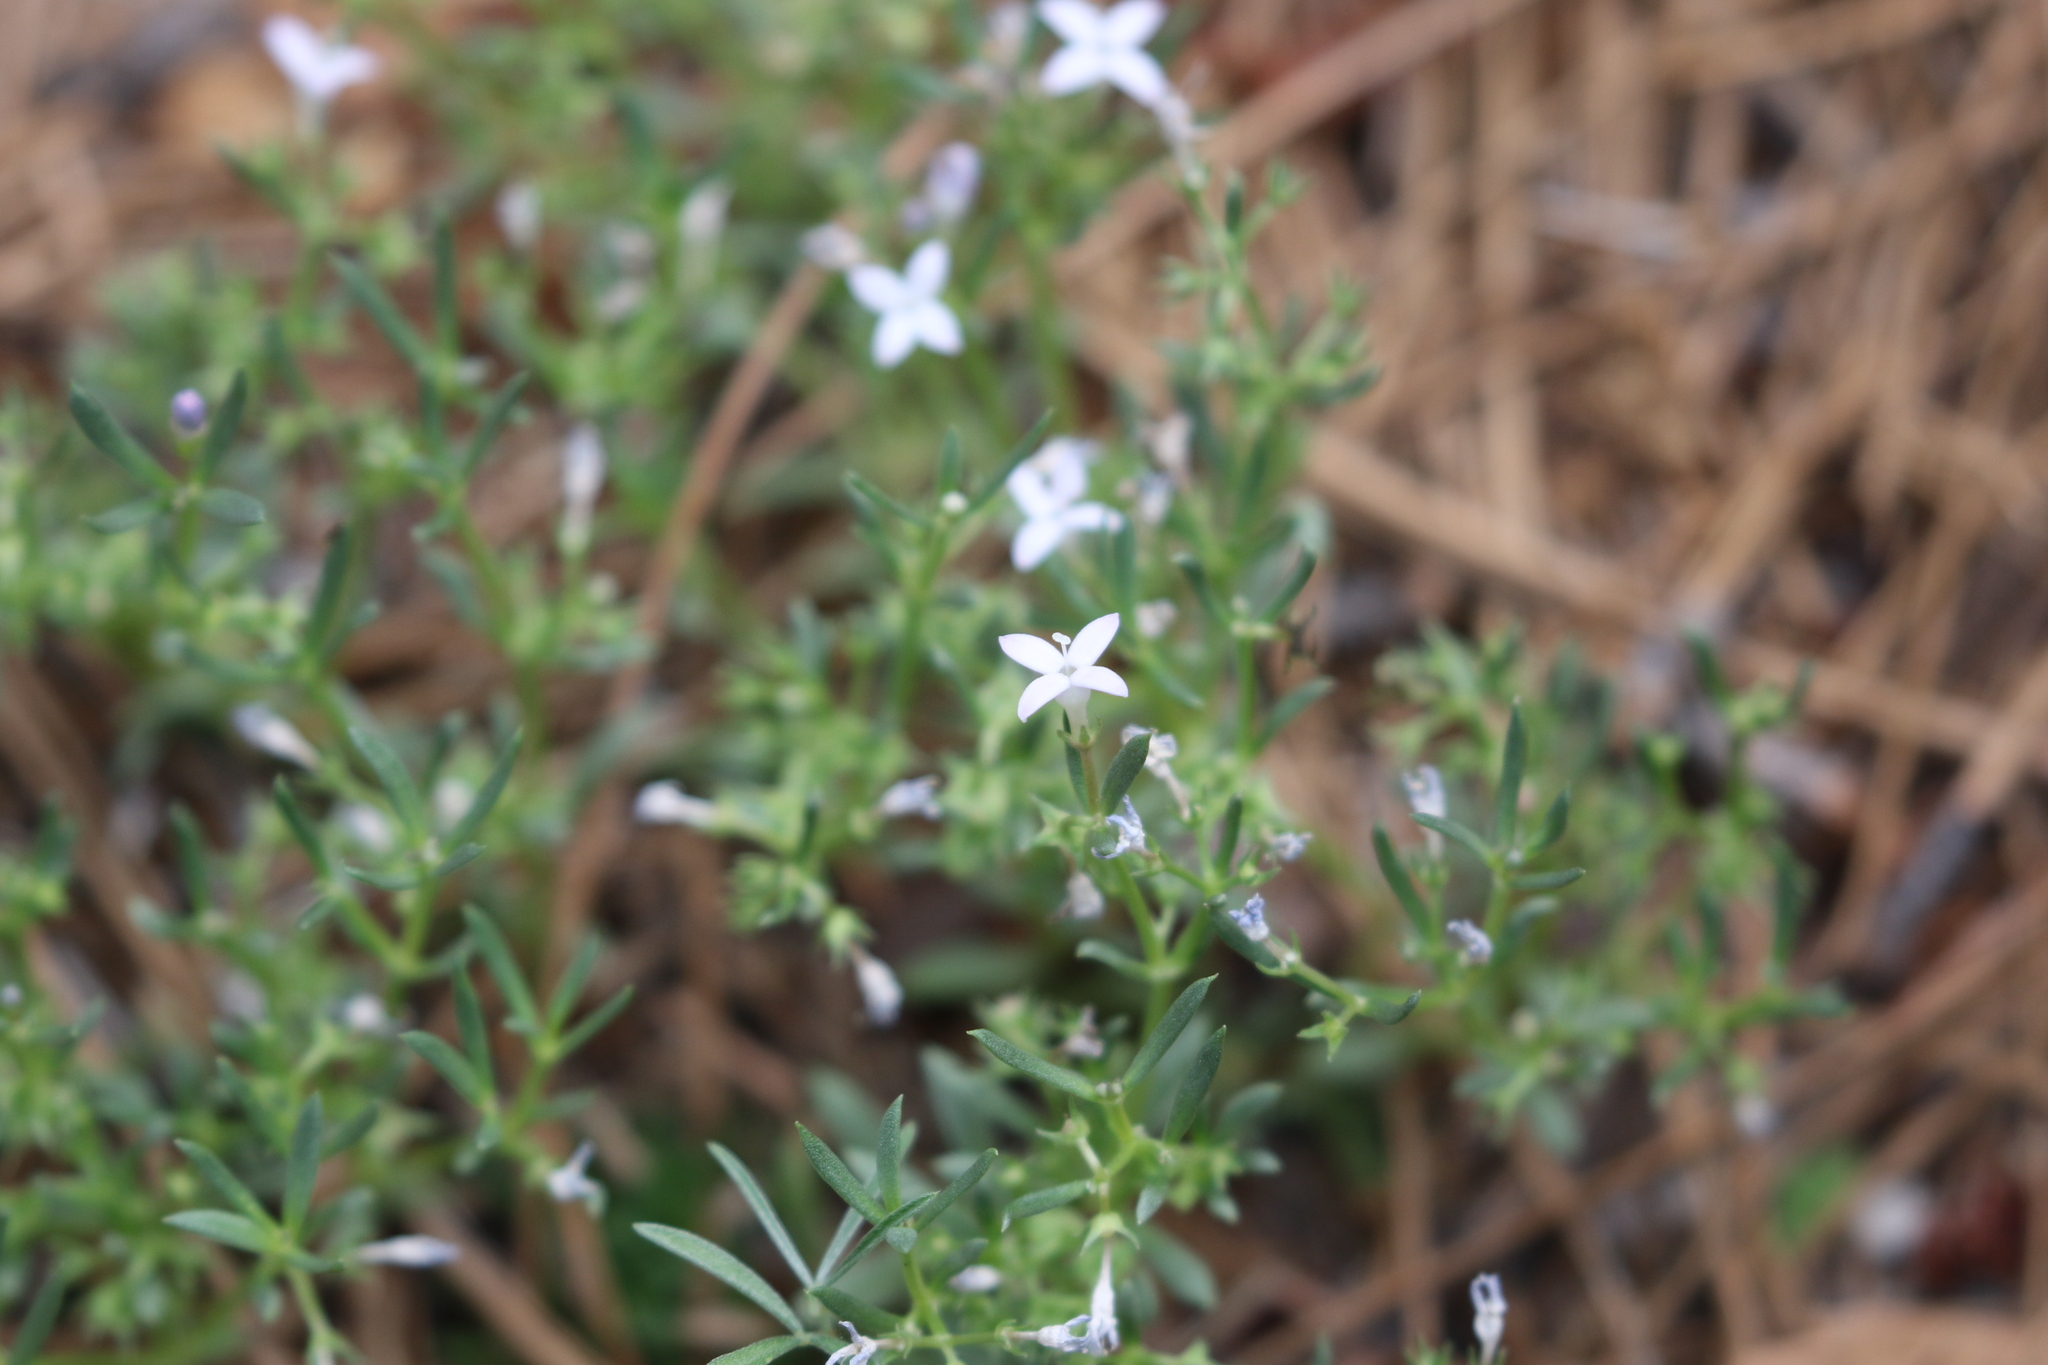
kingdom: Plantae
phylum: Tracheophyta
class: Magnoliopsida
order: Gentianales
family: Rubiaceae
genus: Houstonia
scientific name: Houstonia wrightii
